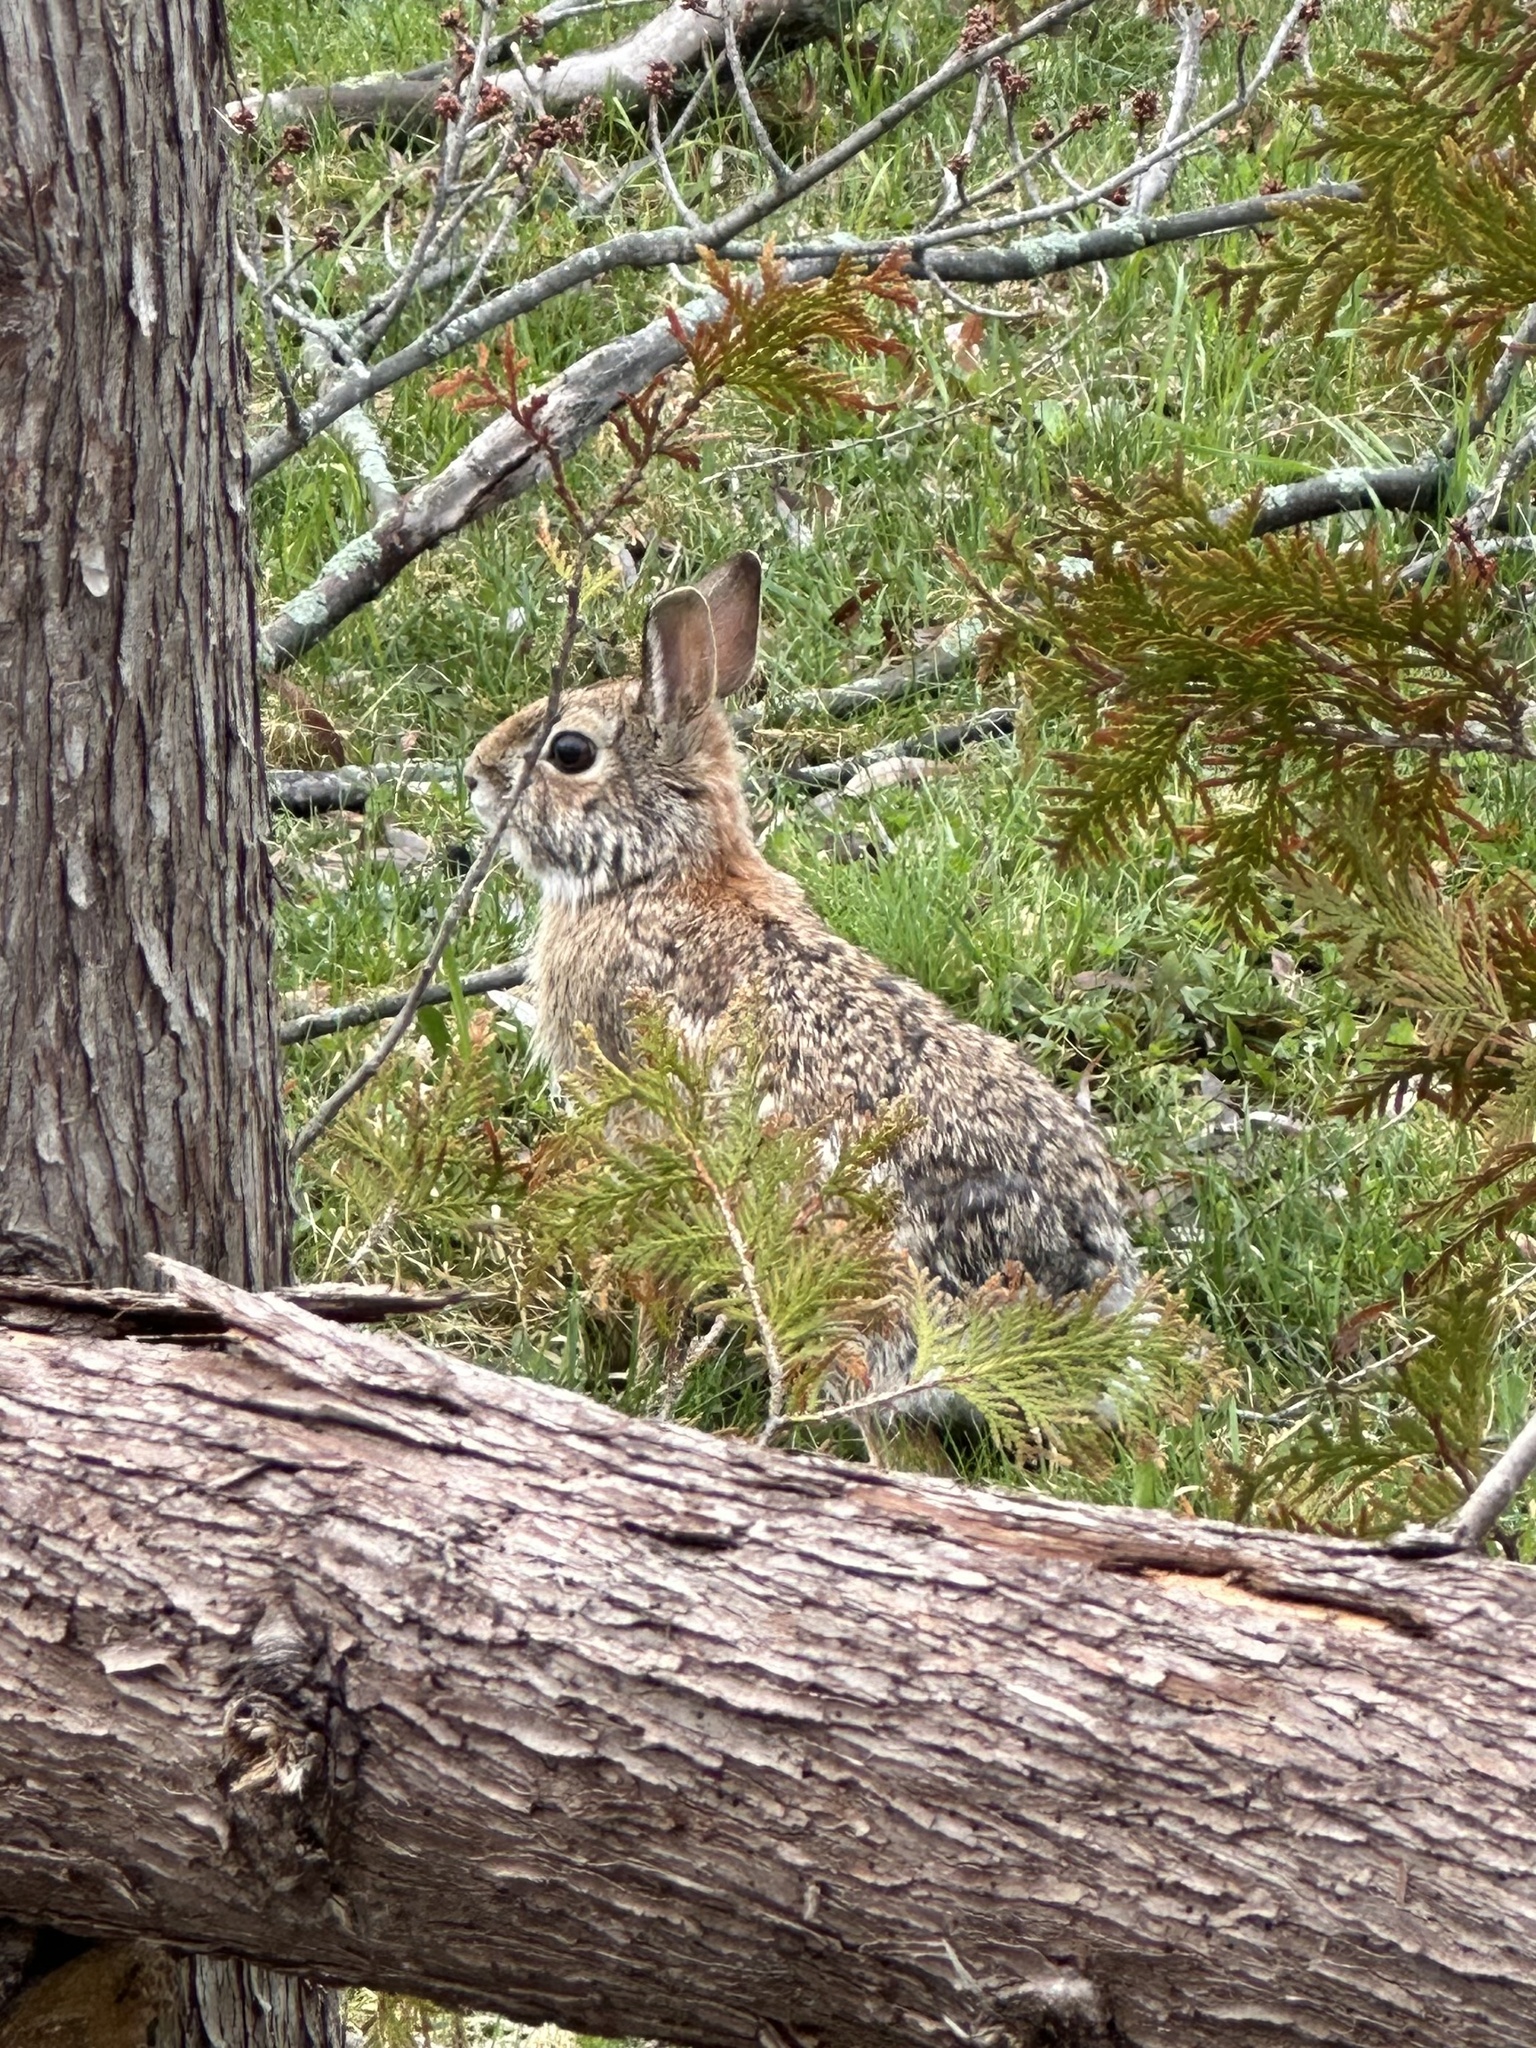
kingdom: Animalia
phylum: Chordata
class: Mammalia
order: Lagomorpha
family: Leporidae
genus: Sylvilagus
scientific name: Sylvilagus floridanus
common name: Eastern cottontail
